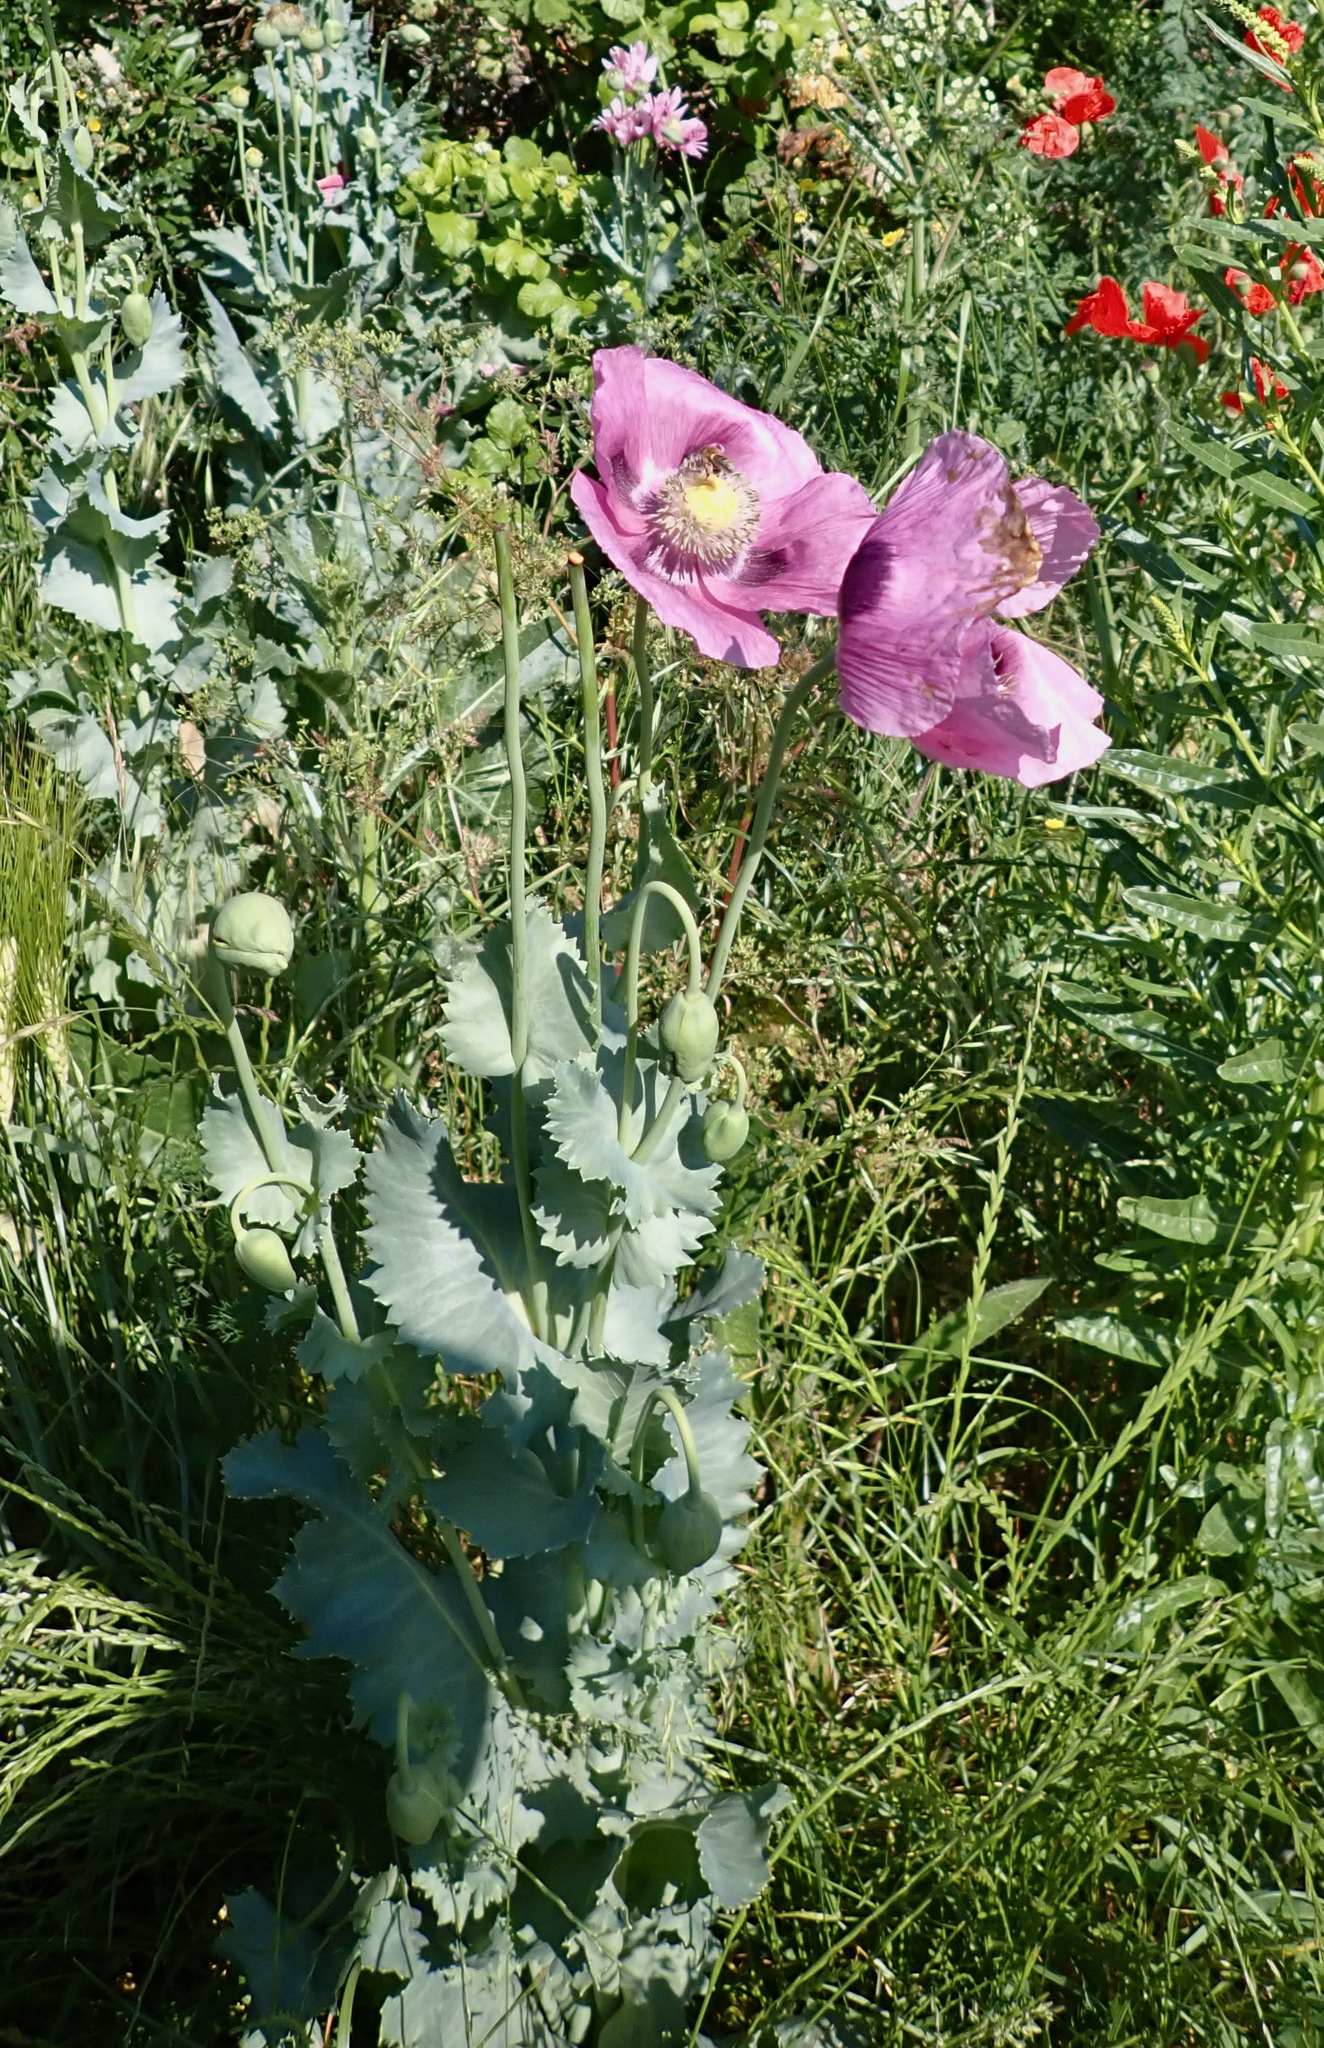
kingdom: Plantae
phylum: Tracheophyta
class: Magnoliopsida
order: Ranunculales
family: Papaveraceae
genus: Papaver
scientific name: Papaver somniferum
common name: Opium poppy
